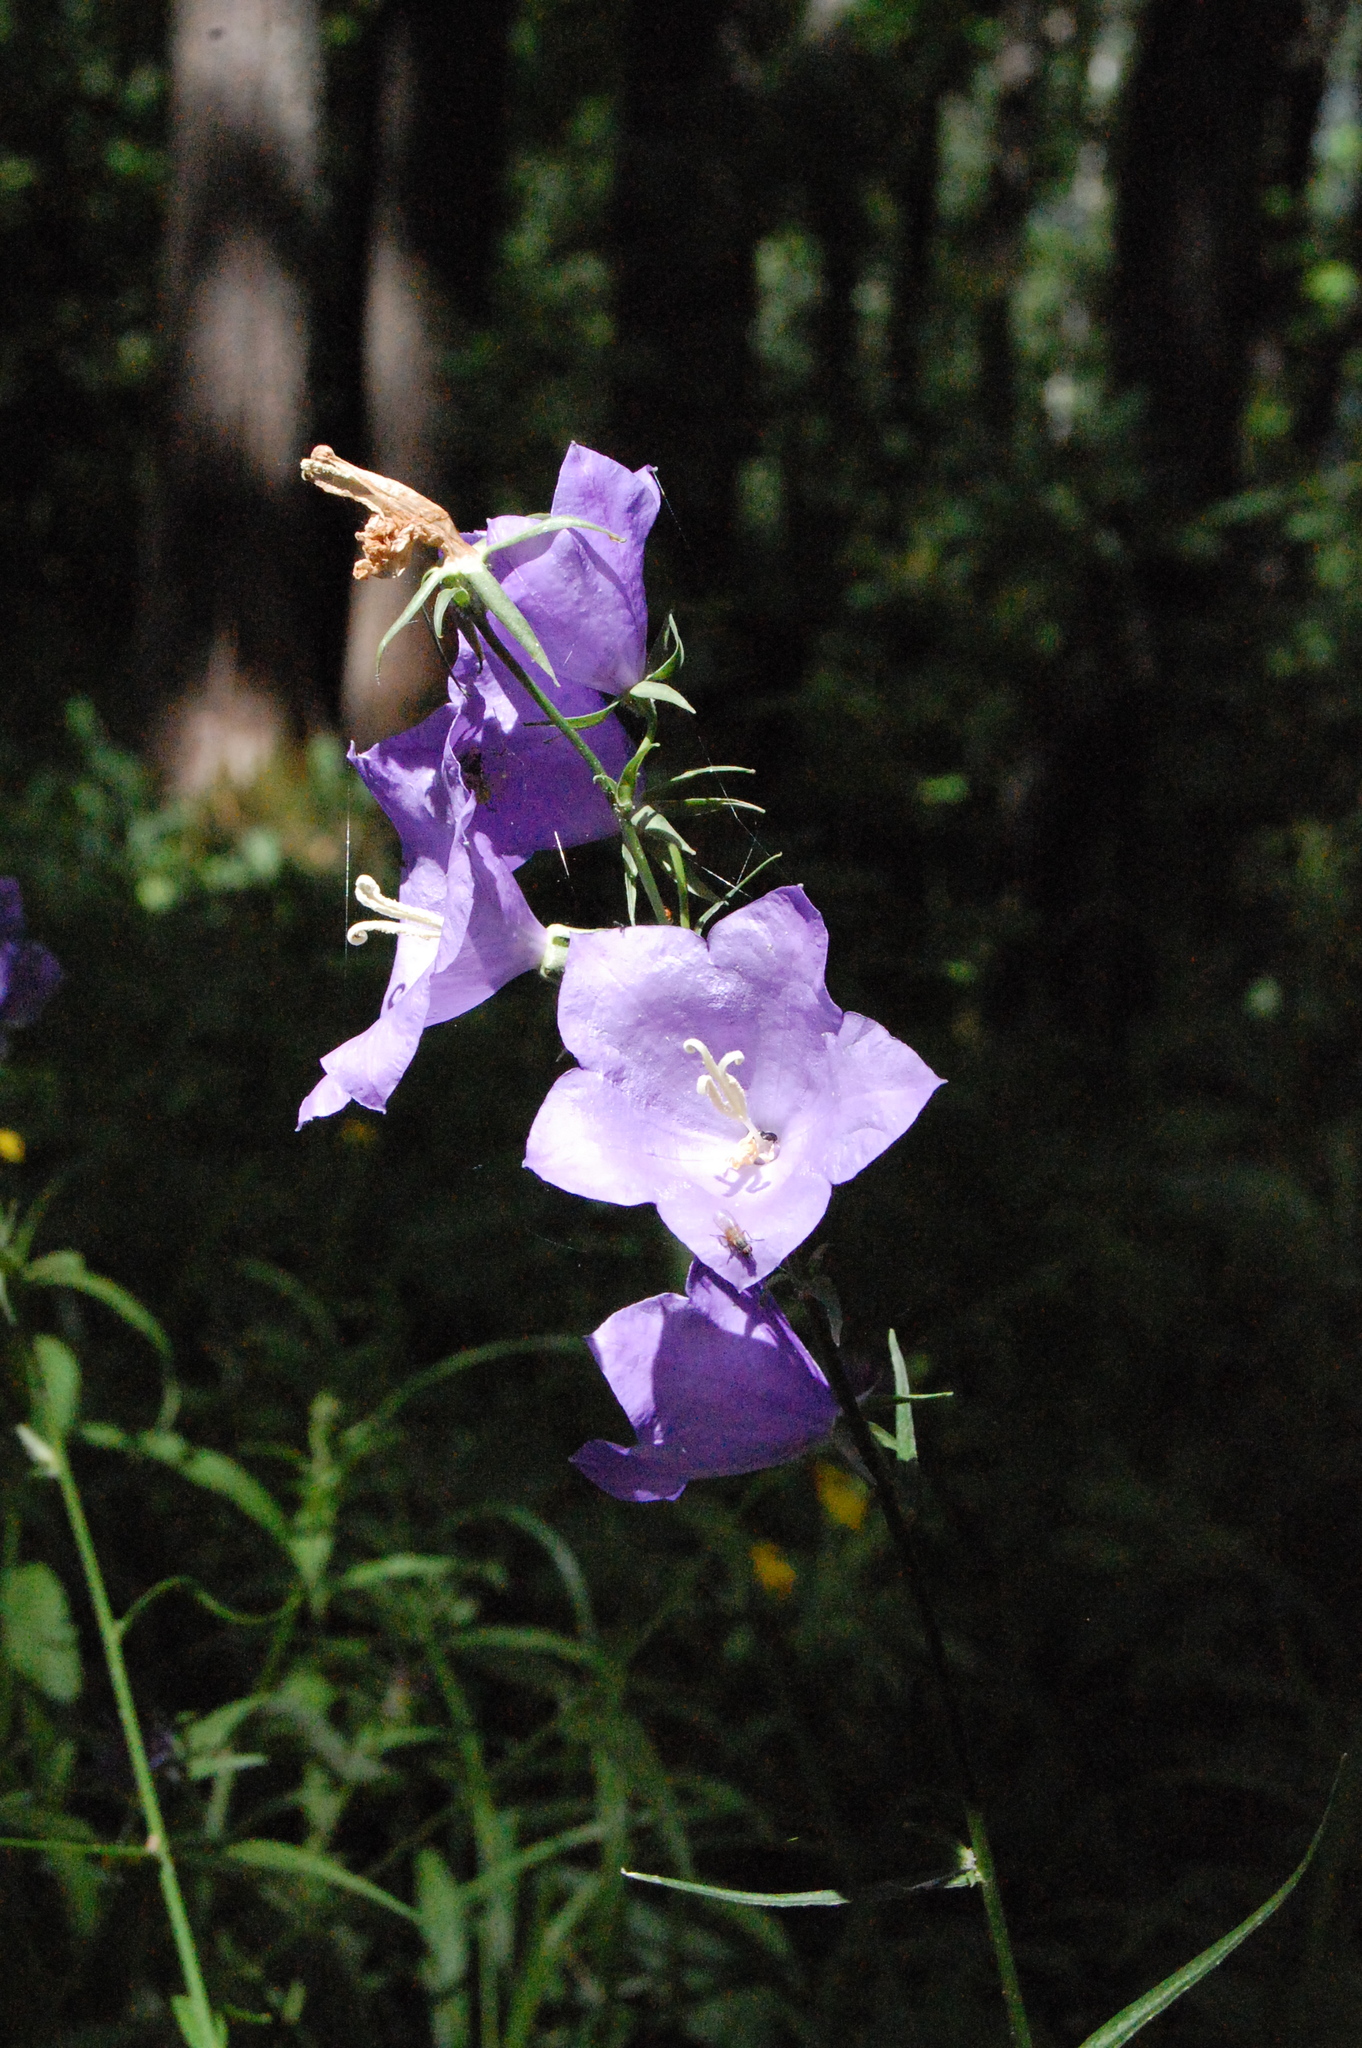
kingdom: Plantae
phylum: Tracheophyta
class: Magnoliopsida
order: Asterales
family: Campanulaceae
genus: Campanula
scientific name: Campanula persicifolia
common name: Peach-leaved bellflower
